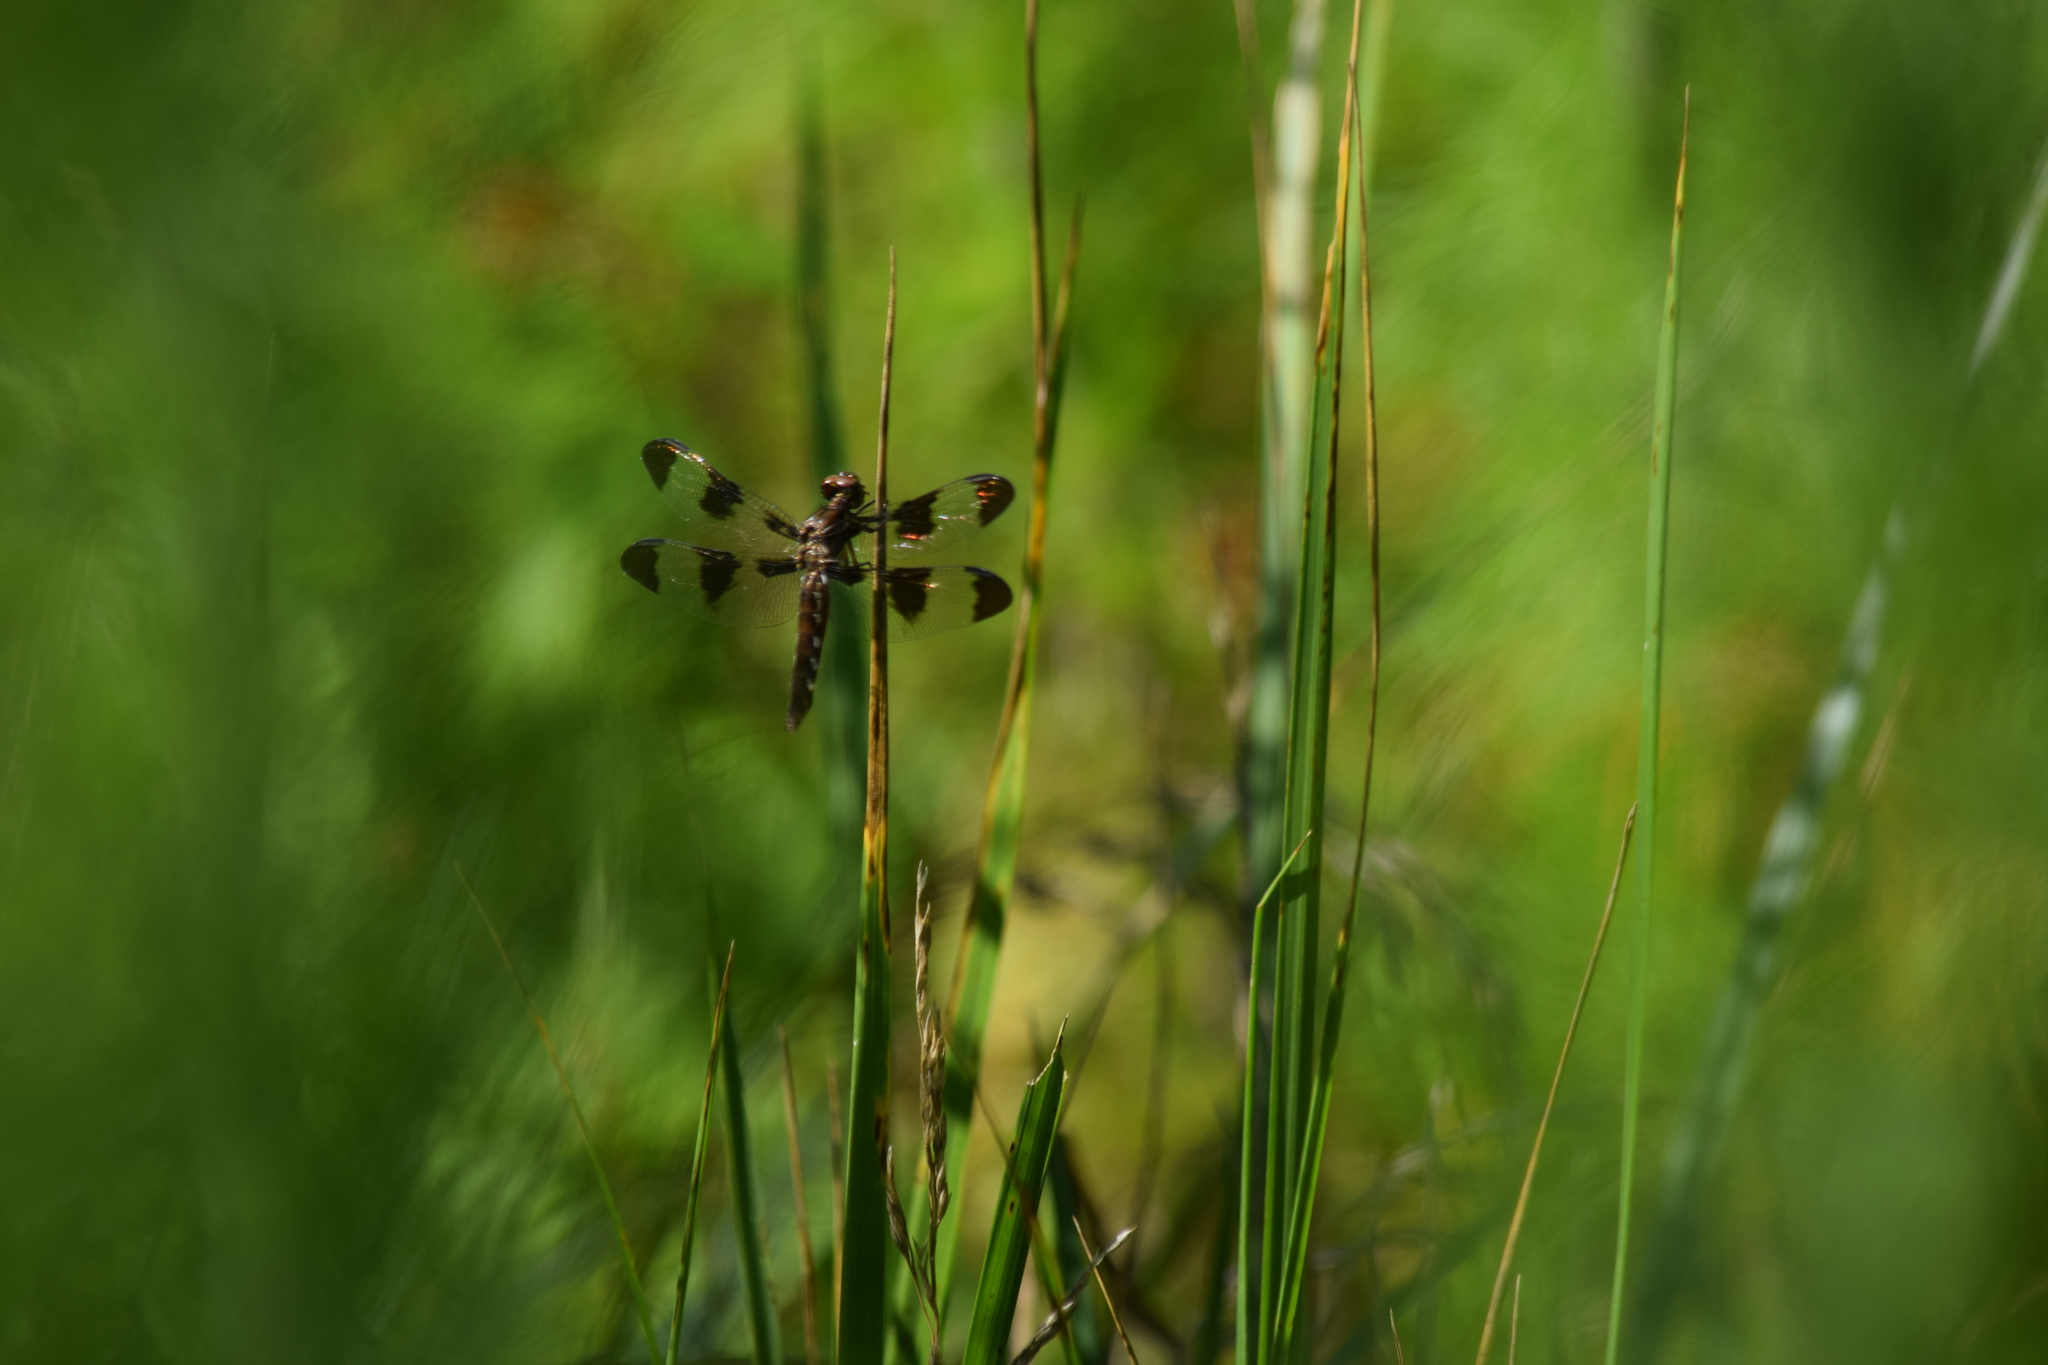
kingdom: Animalia
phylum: Arthropoda
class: Insecta
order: Odonata
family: Libellulidae
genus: Plathemis
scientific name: Plathemis lydia
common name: Common whitetail
